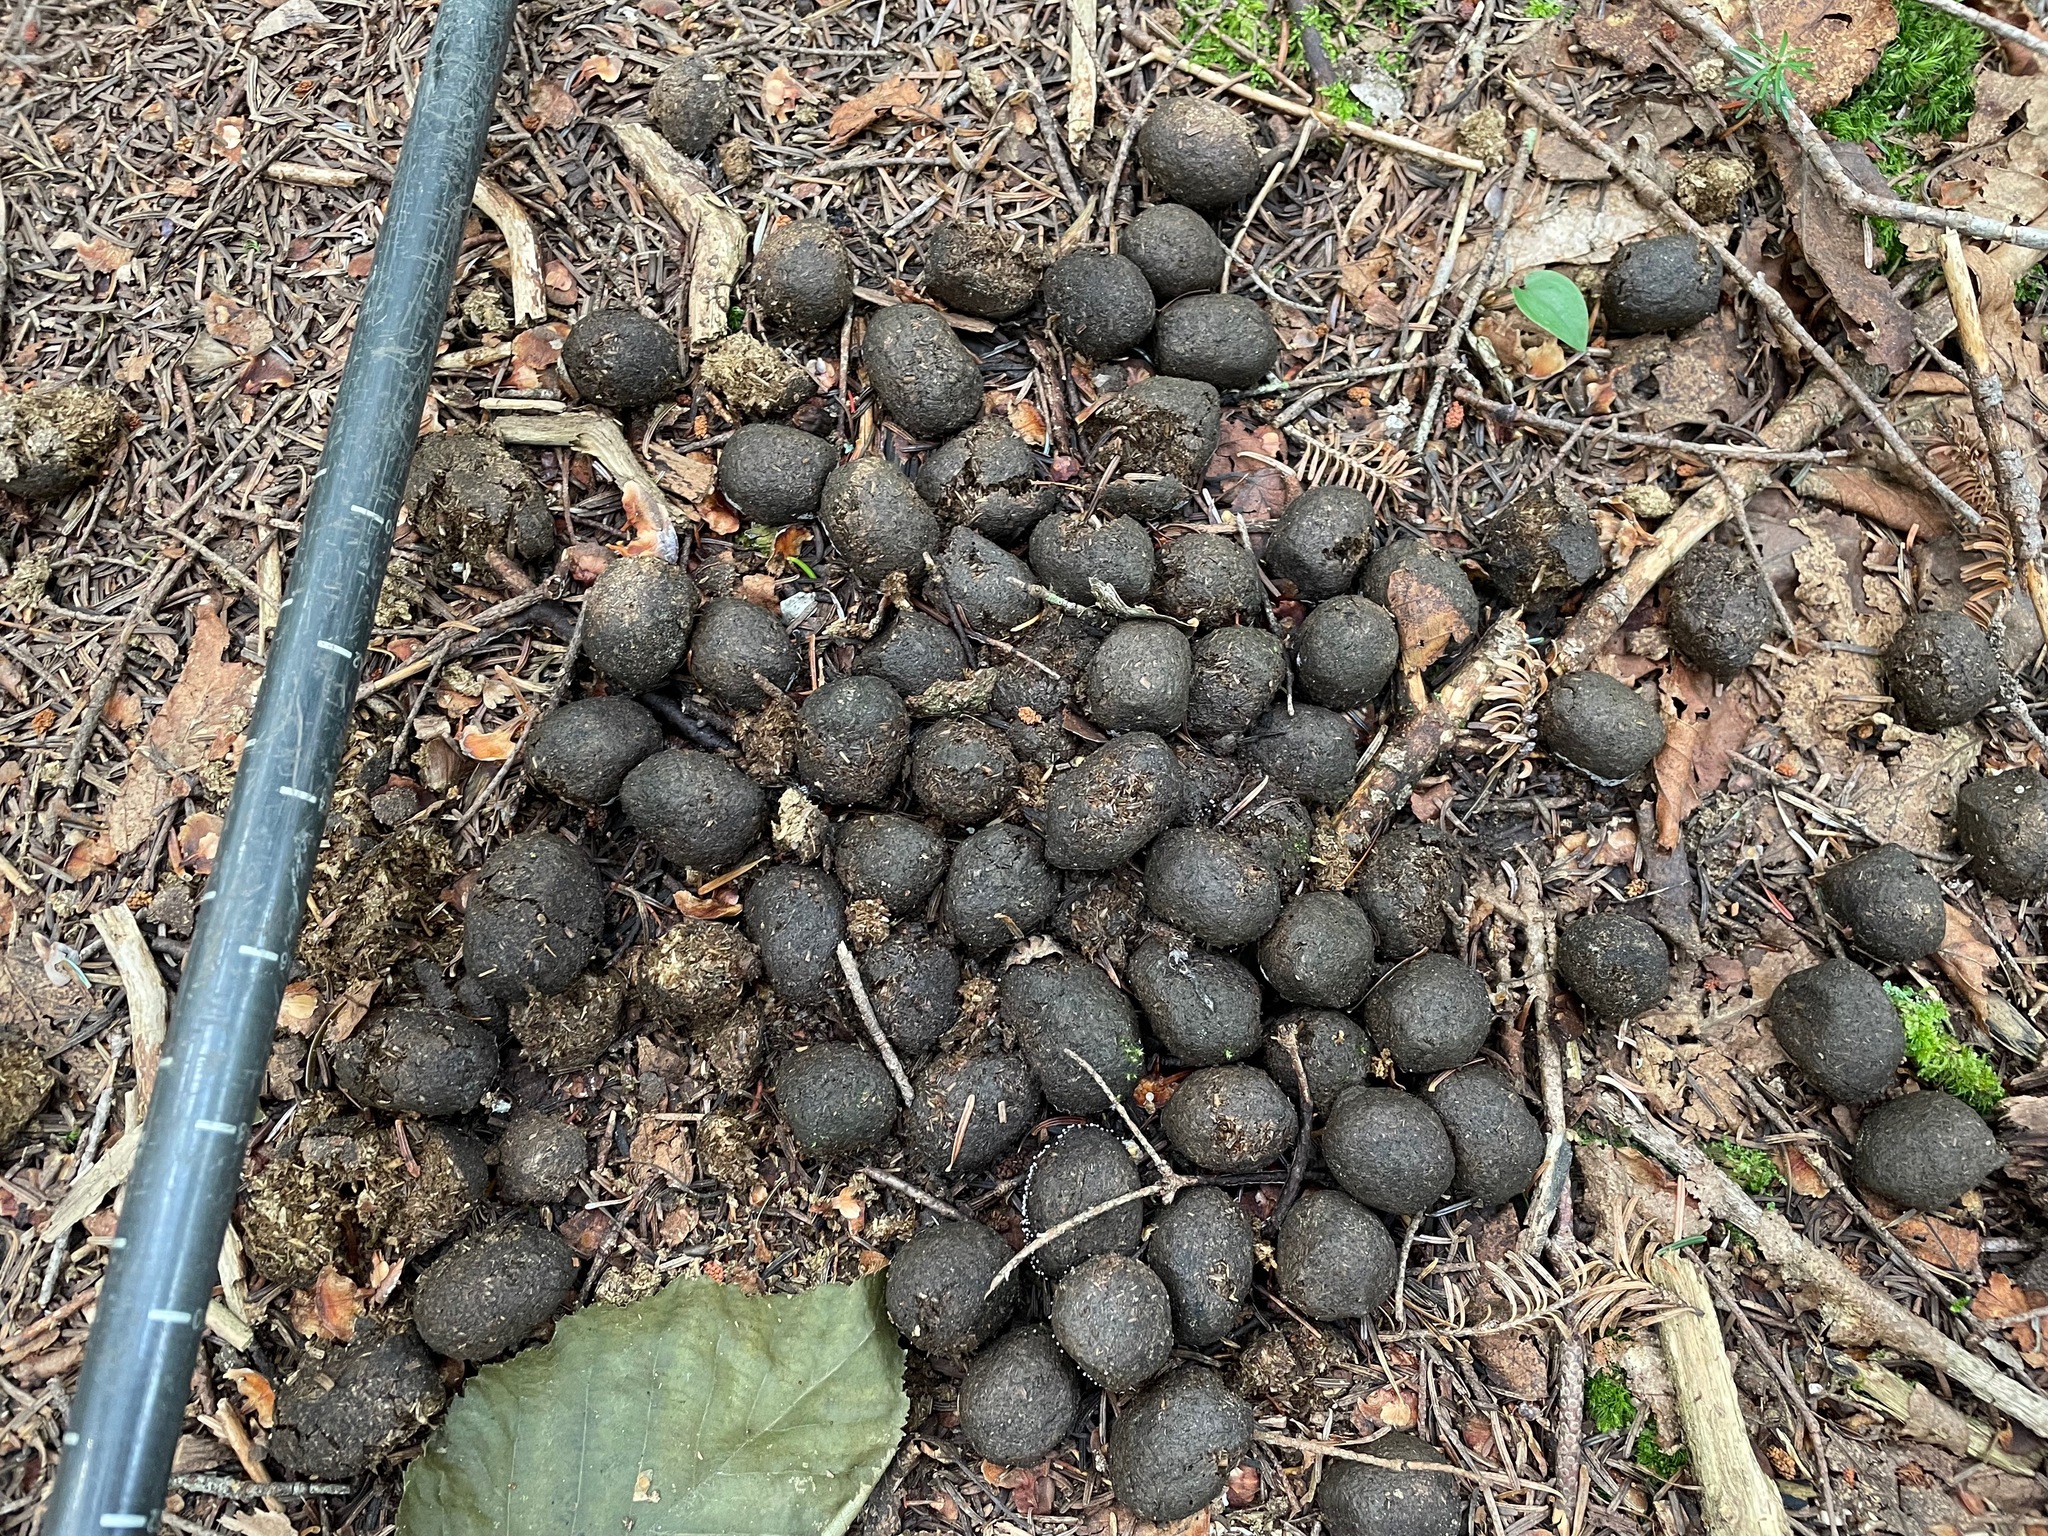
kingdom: Animalia
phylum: Chordata
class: Mammalia
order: Artiodactyla
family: Cervidae
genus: Alces
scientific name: Alces alces
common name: Moose
